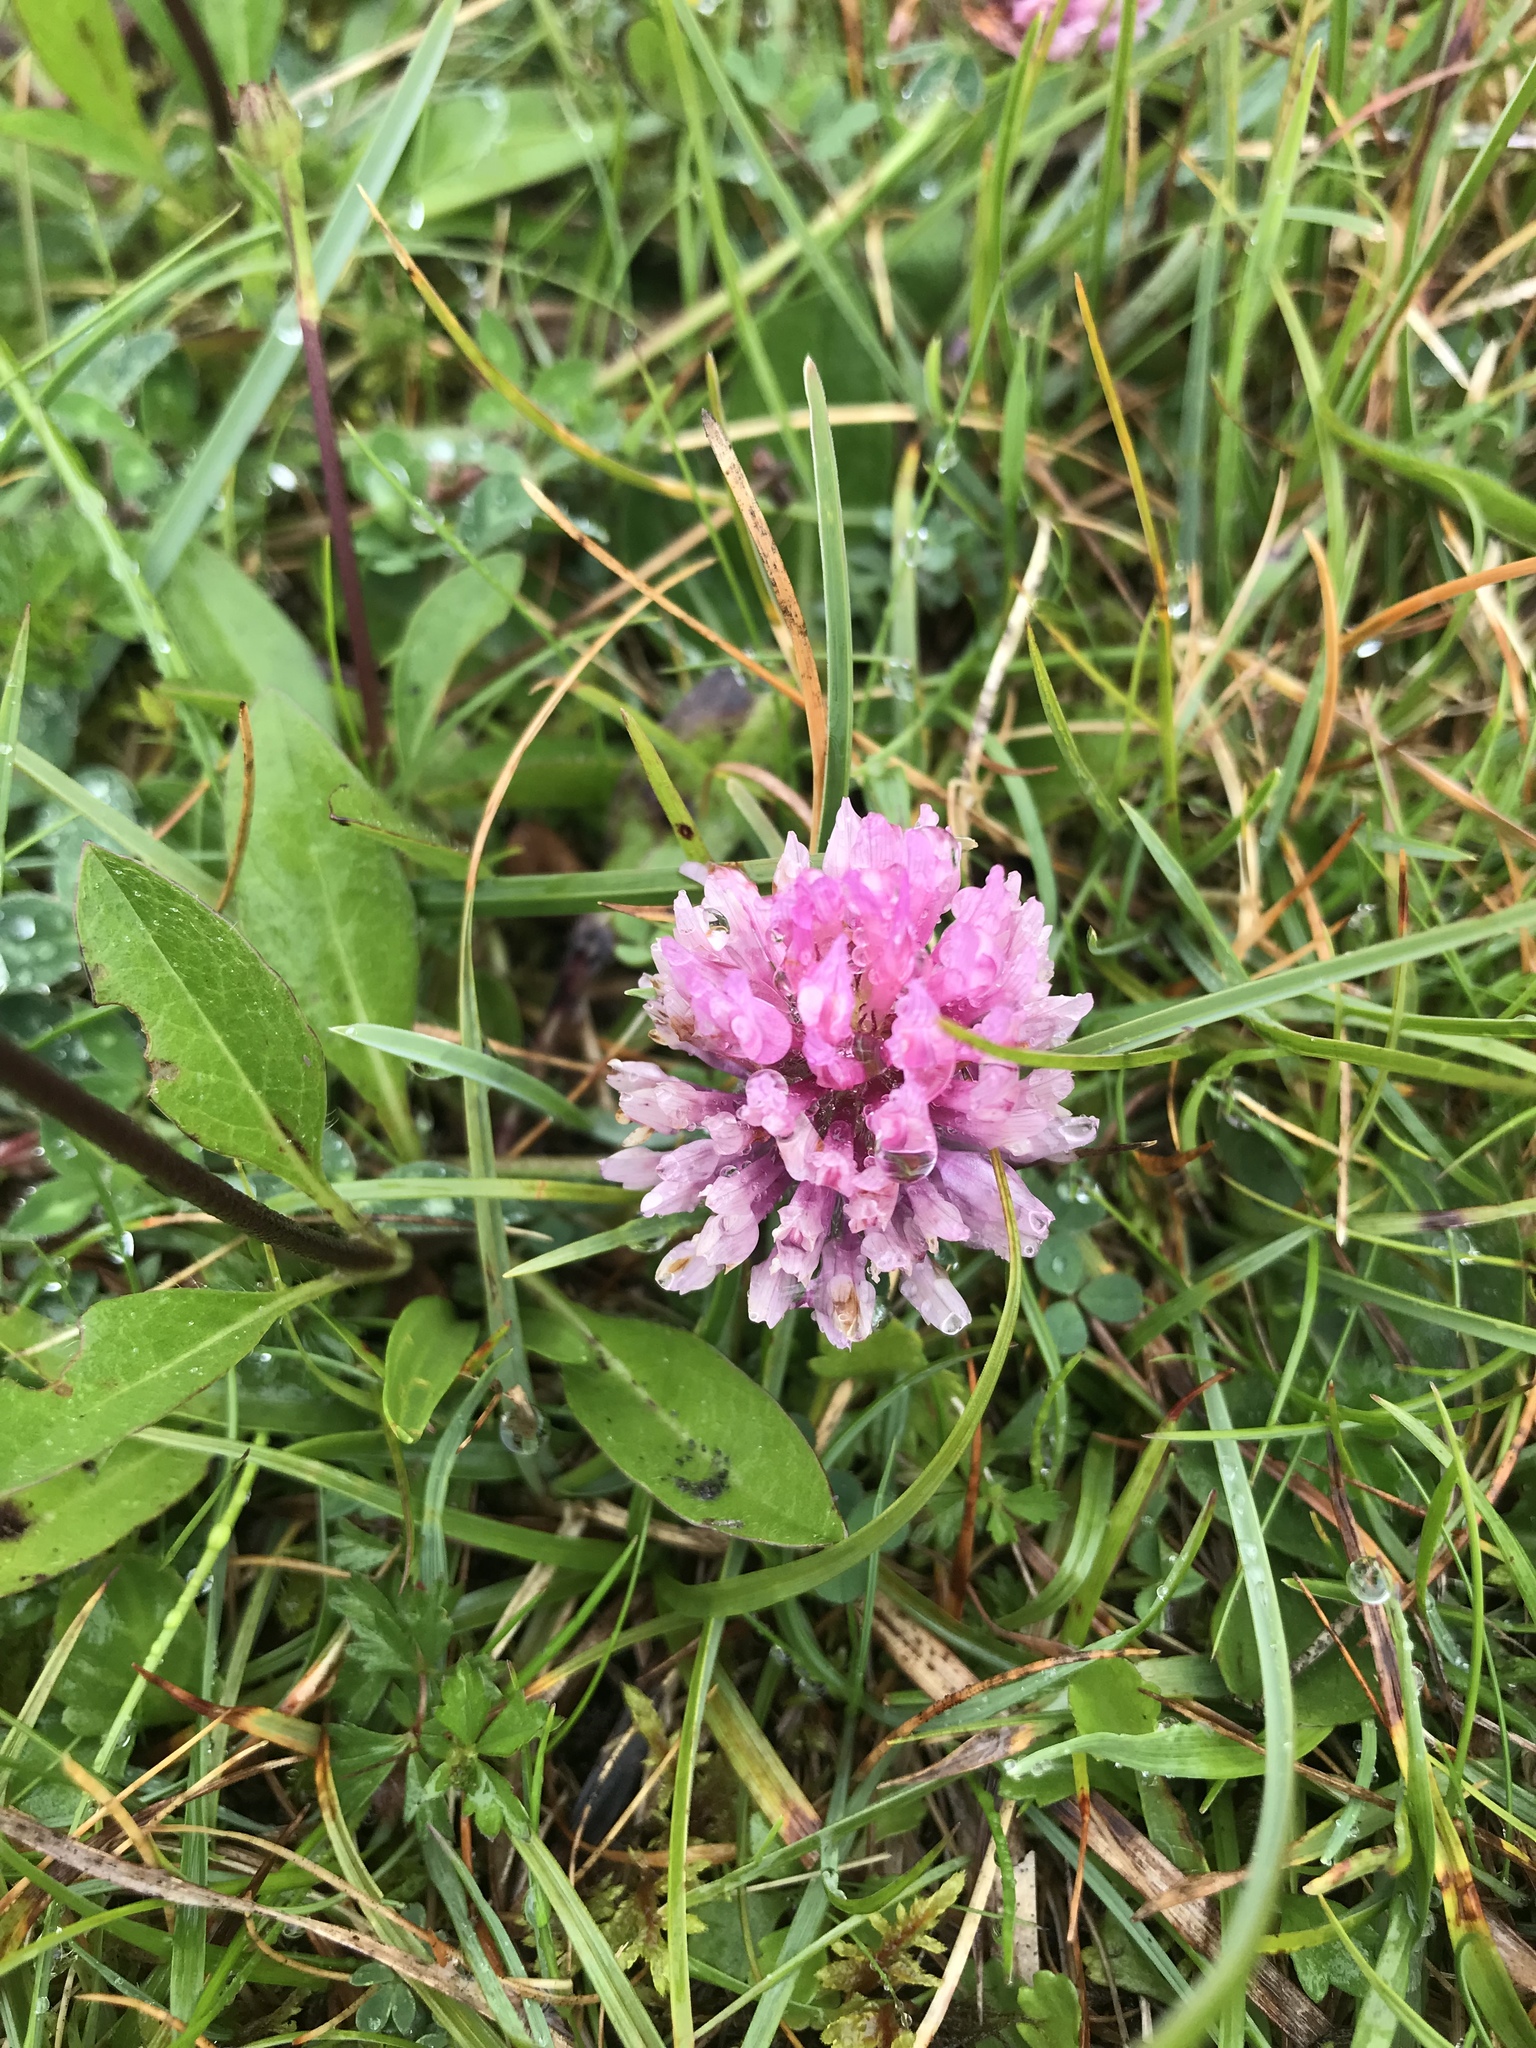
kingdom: Plantae
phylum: Tracheophyta
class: Magnoliopsida
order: Fabales
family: Fabaceae
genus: Trifolium
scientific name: Trifolium pratense
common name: Red clover
